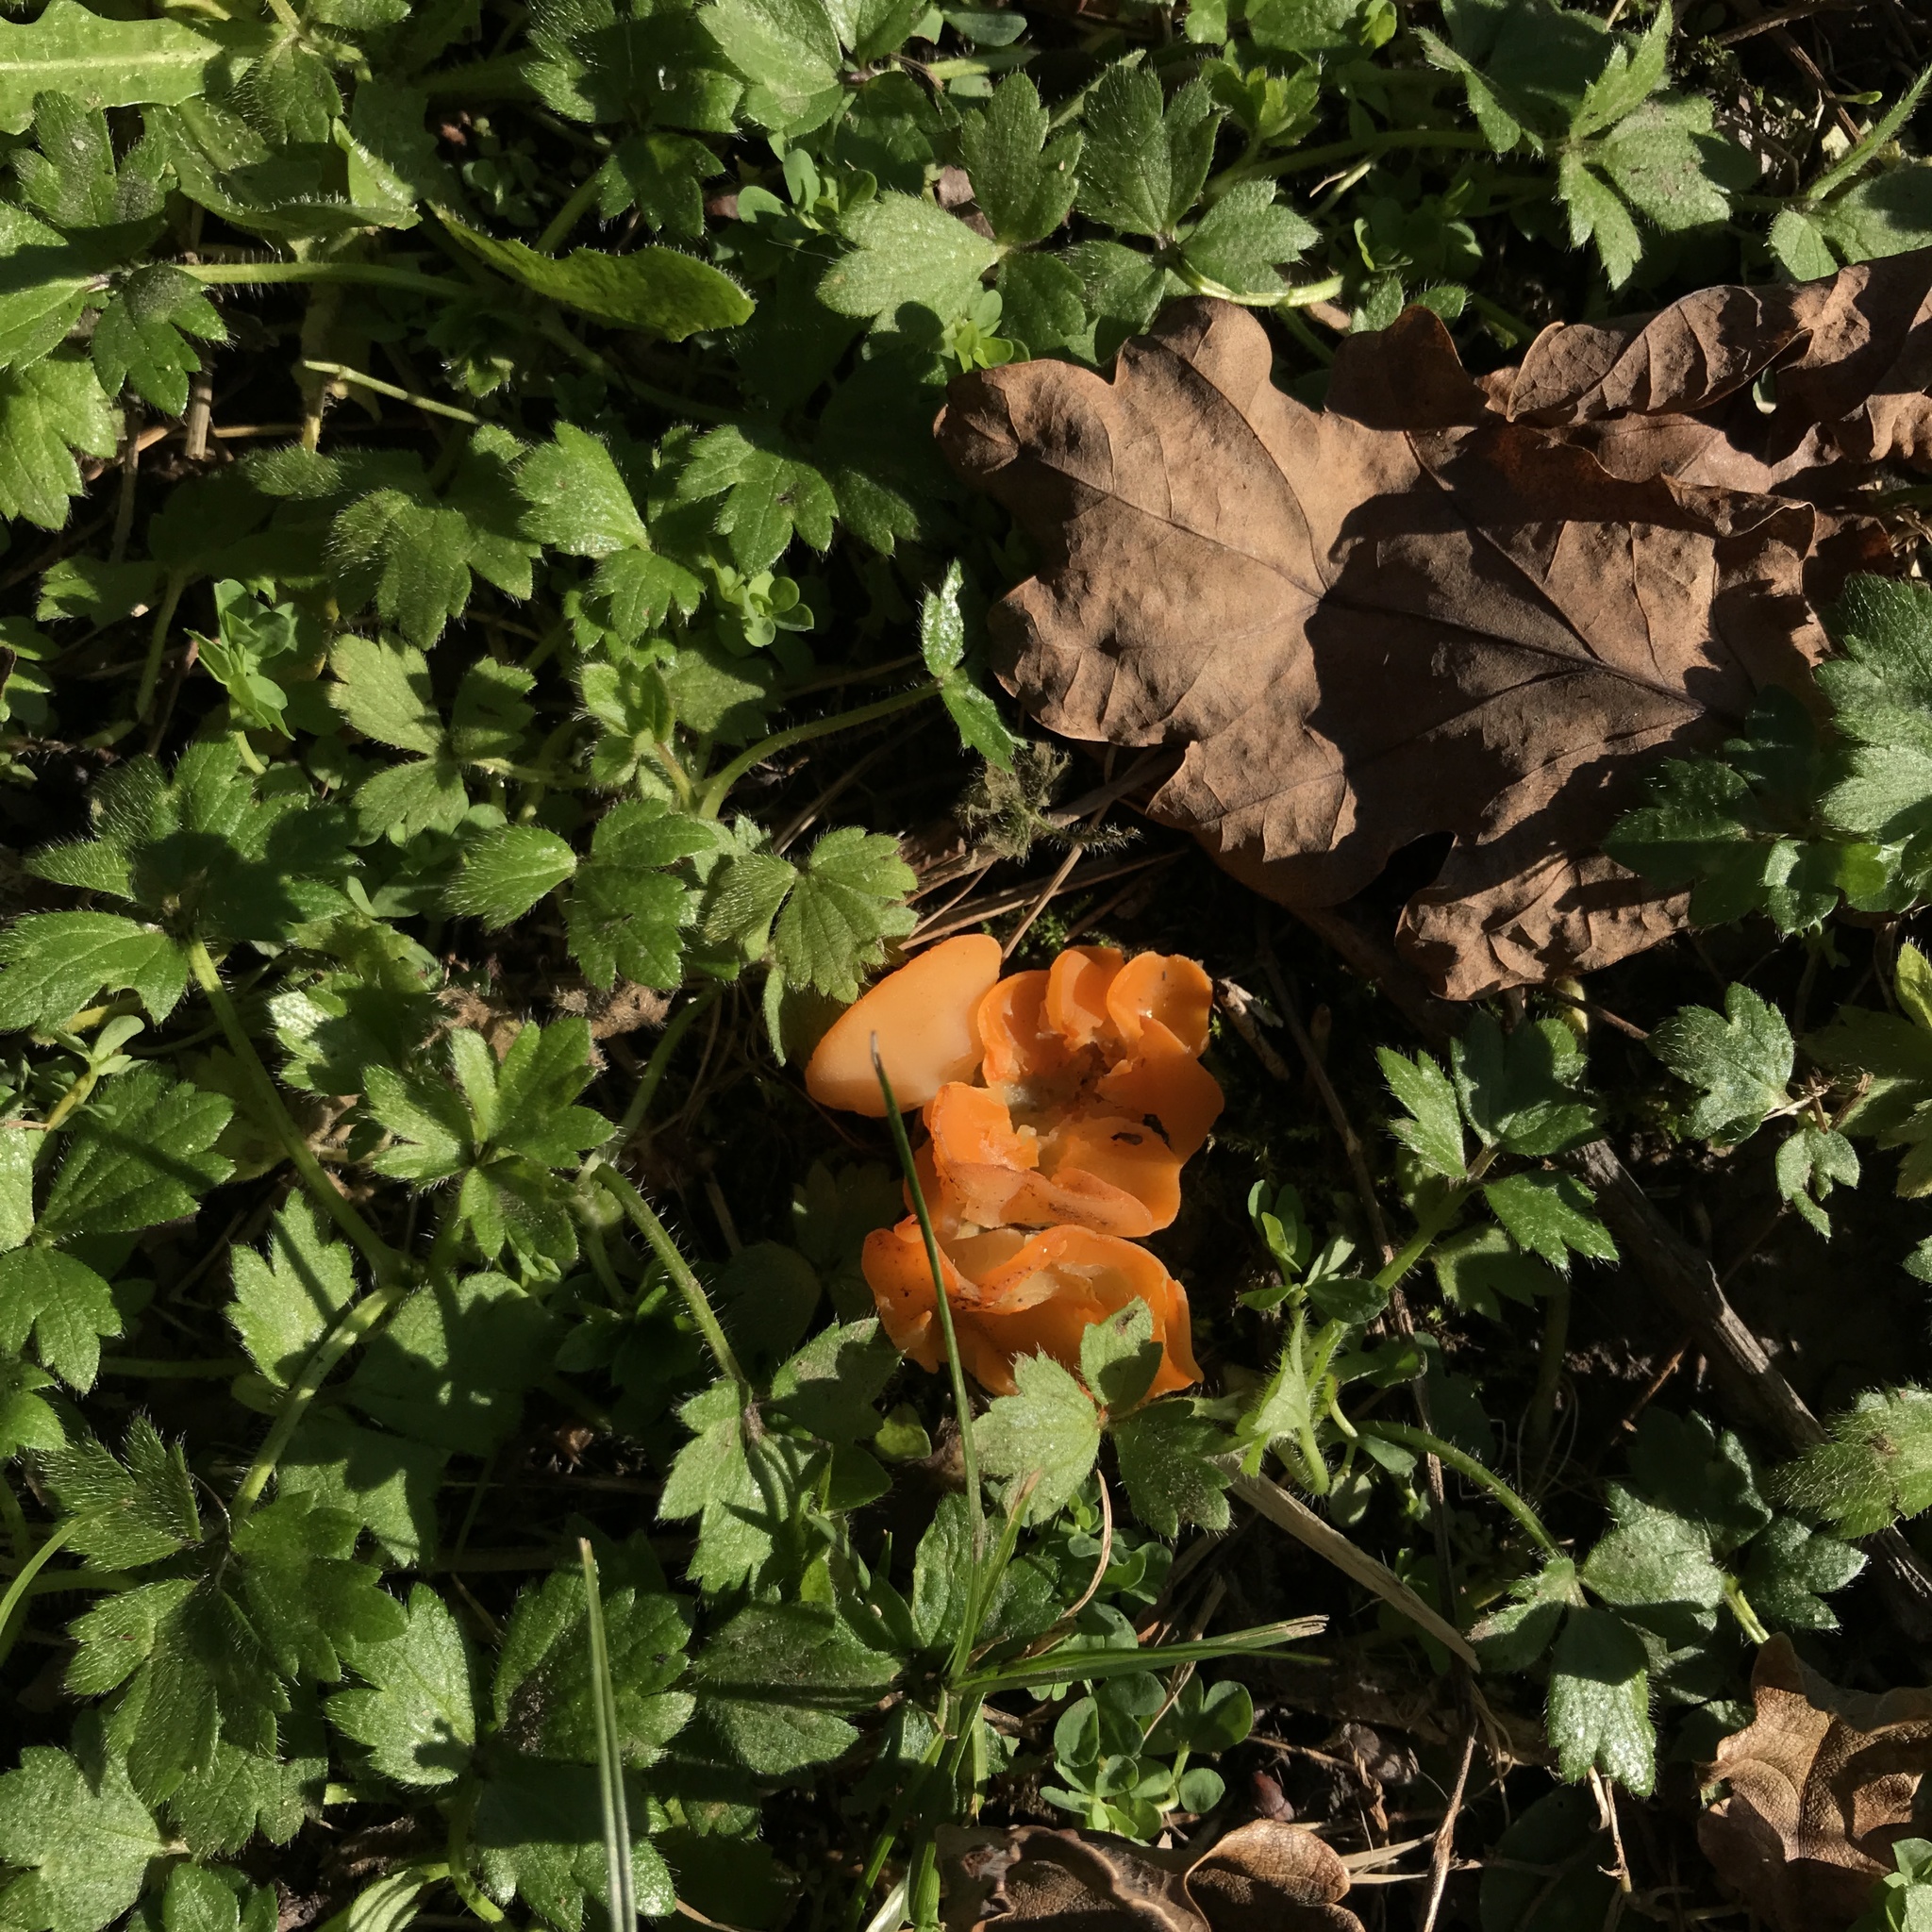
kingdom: Fungi
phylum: Ascomycota
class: Pezizomycetes
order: Pezizales
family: Pyronemataceae
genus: Aleuria
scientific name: Aleuria aurantia
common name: Orange peel fungus
